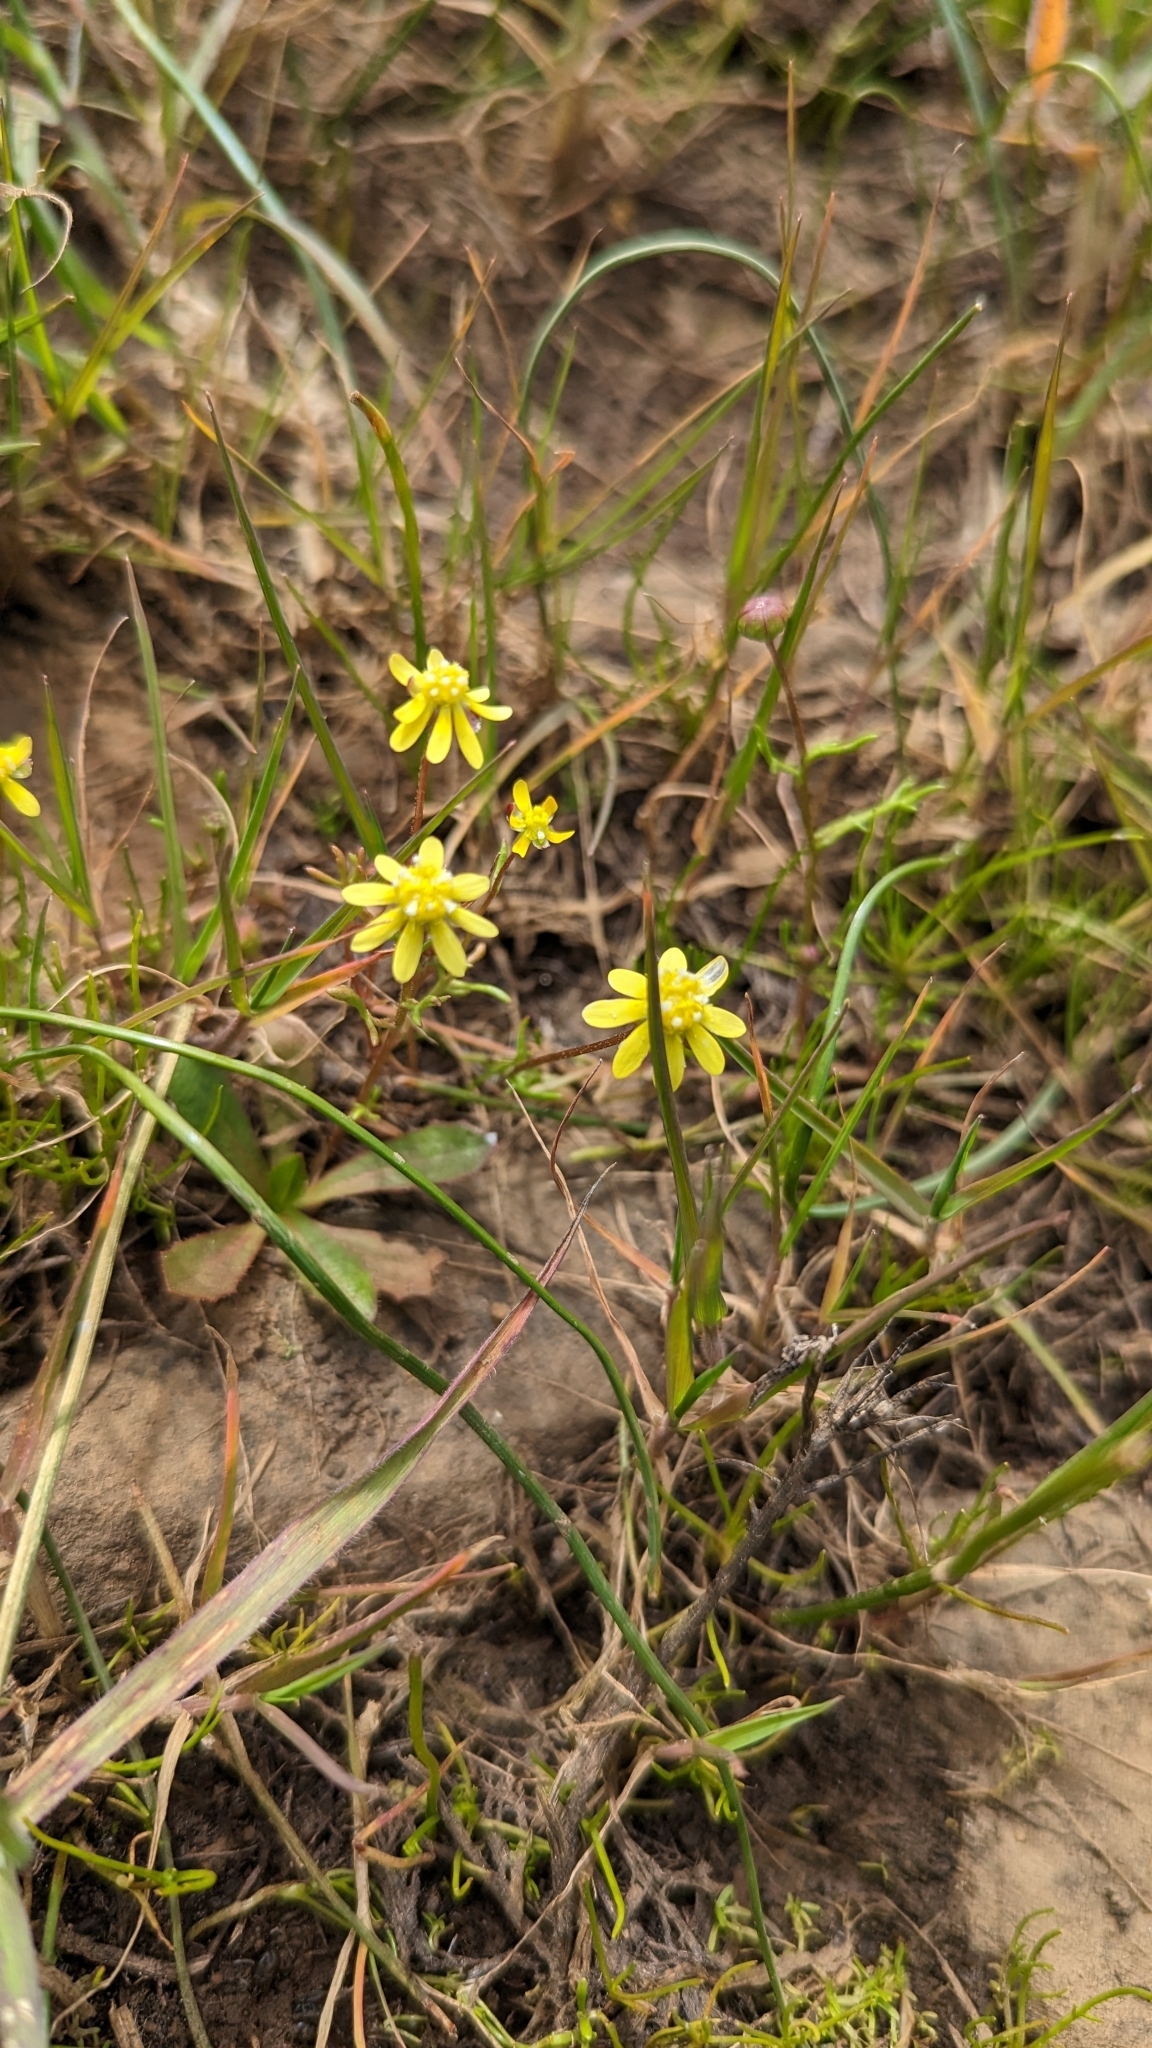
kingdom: Plantae
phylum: Tracheophyta
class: Magnoliopsida
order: Asterales
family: Asteraceae
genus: Blennosperma
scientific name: Blennosperma nanum
